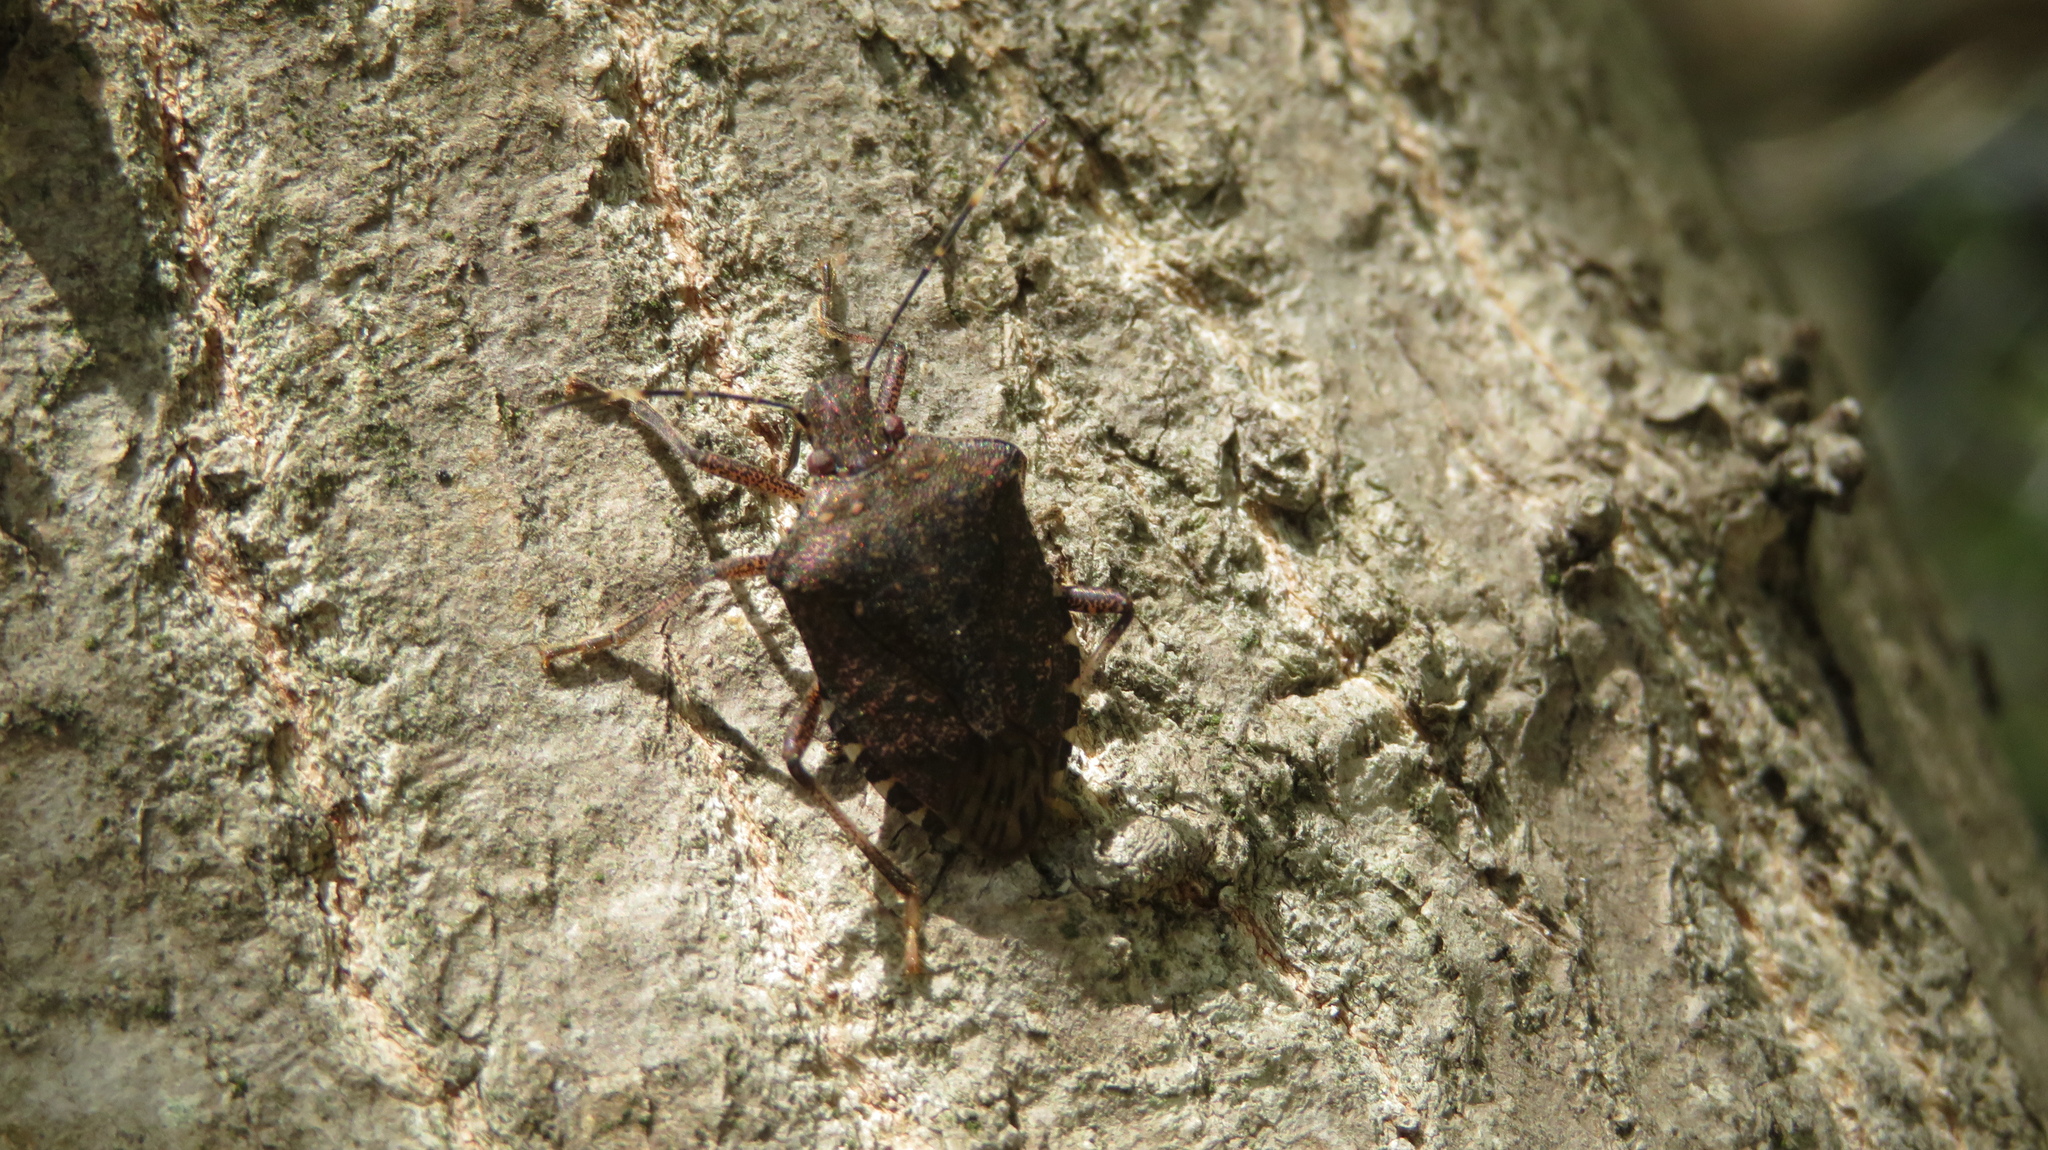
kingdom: Animalia
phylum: Arthropoda
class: Insecta
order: Hemiptera
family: Pentatomidae
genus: Halyomorpha
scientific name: Halyomorpha halys
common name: Brown marmorated stink bug
